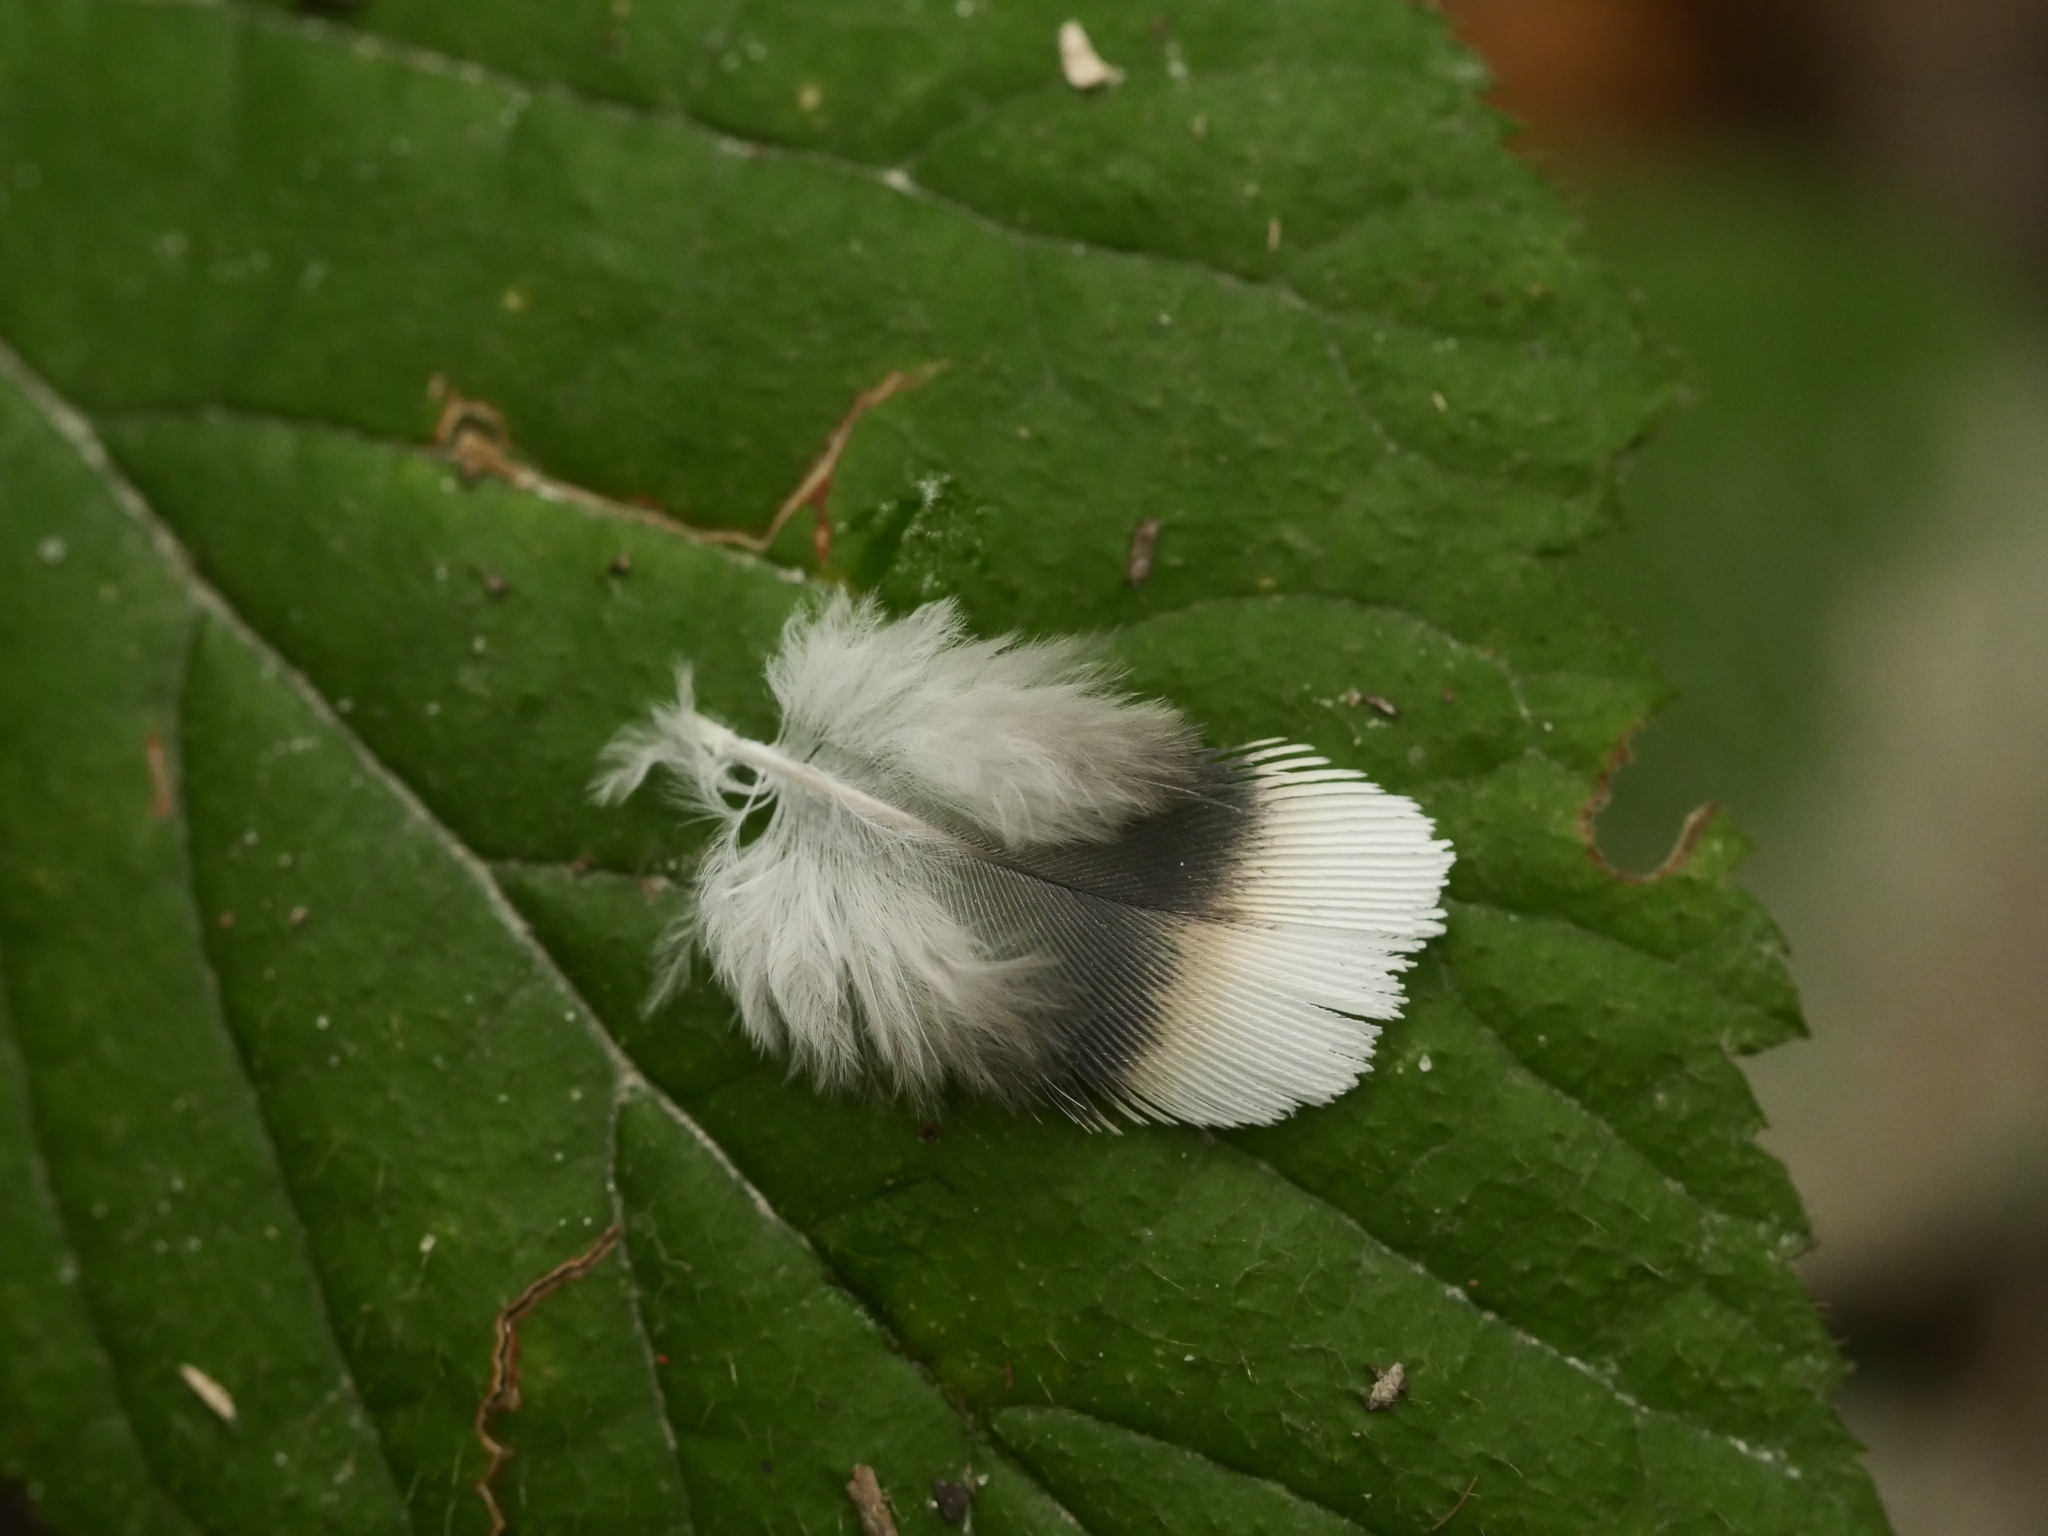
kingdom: Animalia
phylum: Chordata
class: Aves
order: Columbiformes
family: Columbidae
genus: Columba
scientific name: Columba palumbus
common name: Common wood pigeon
